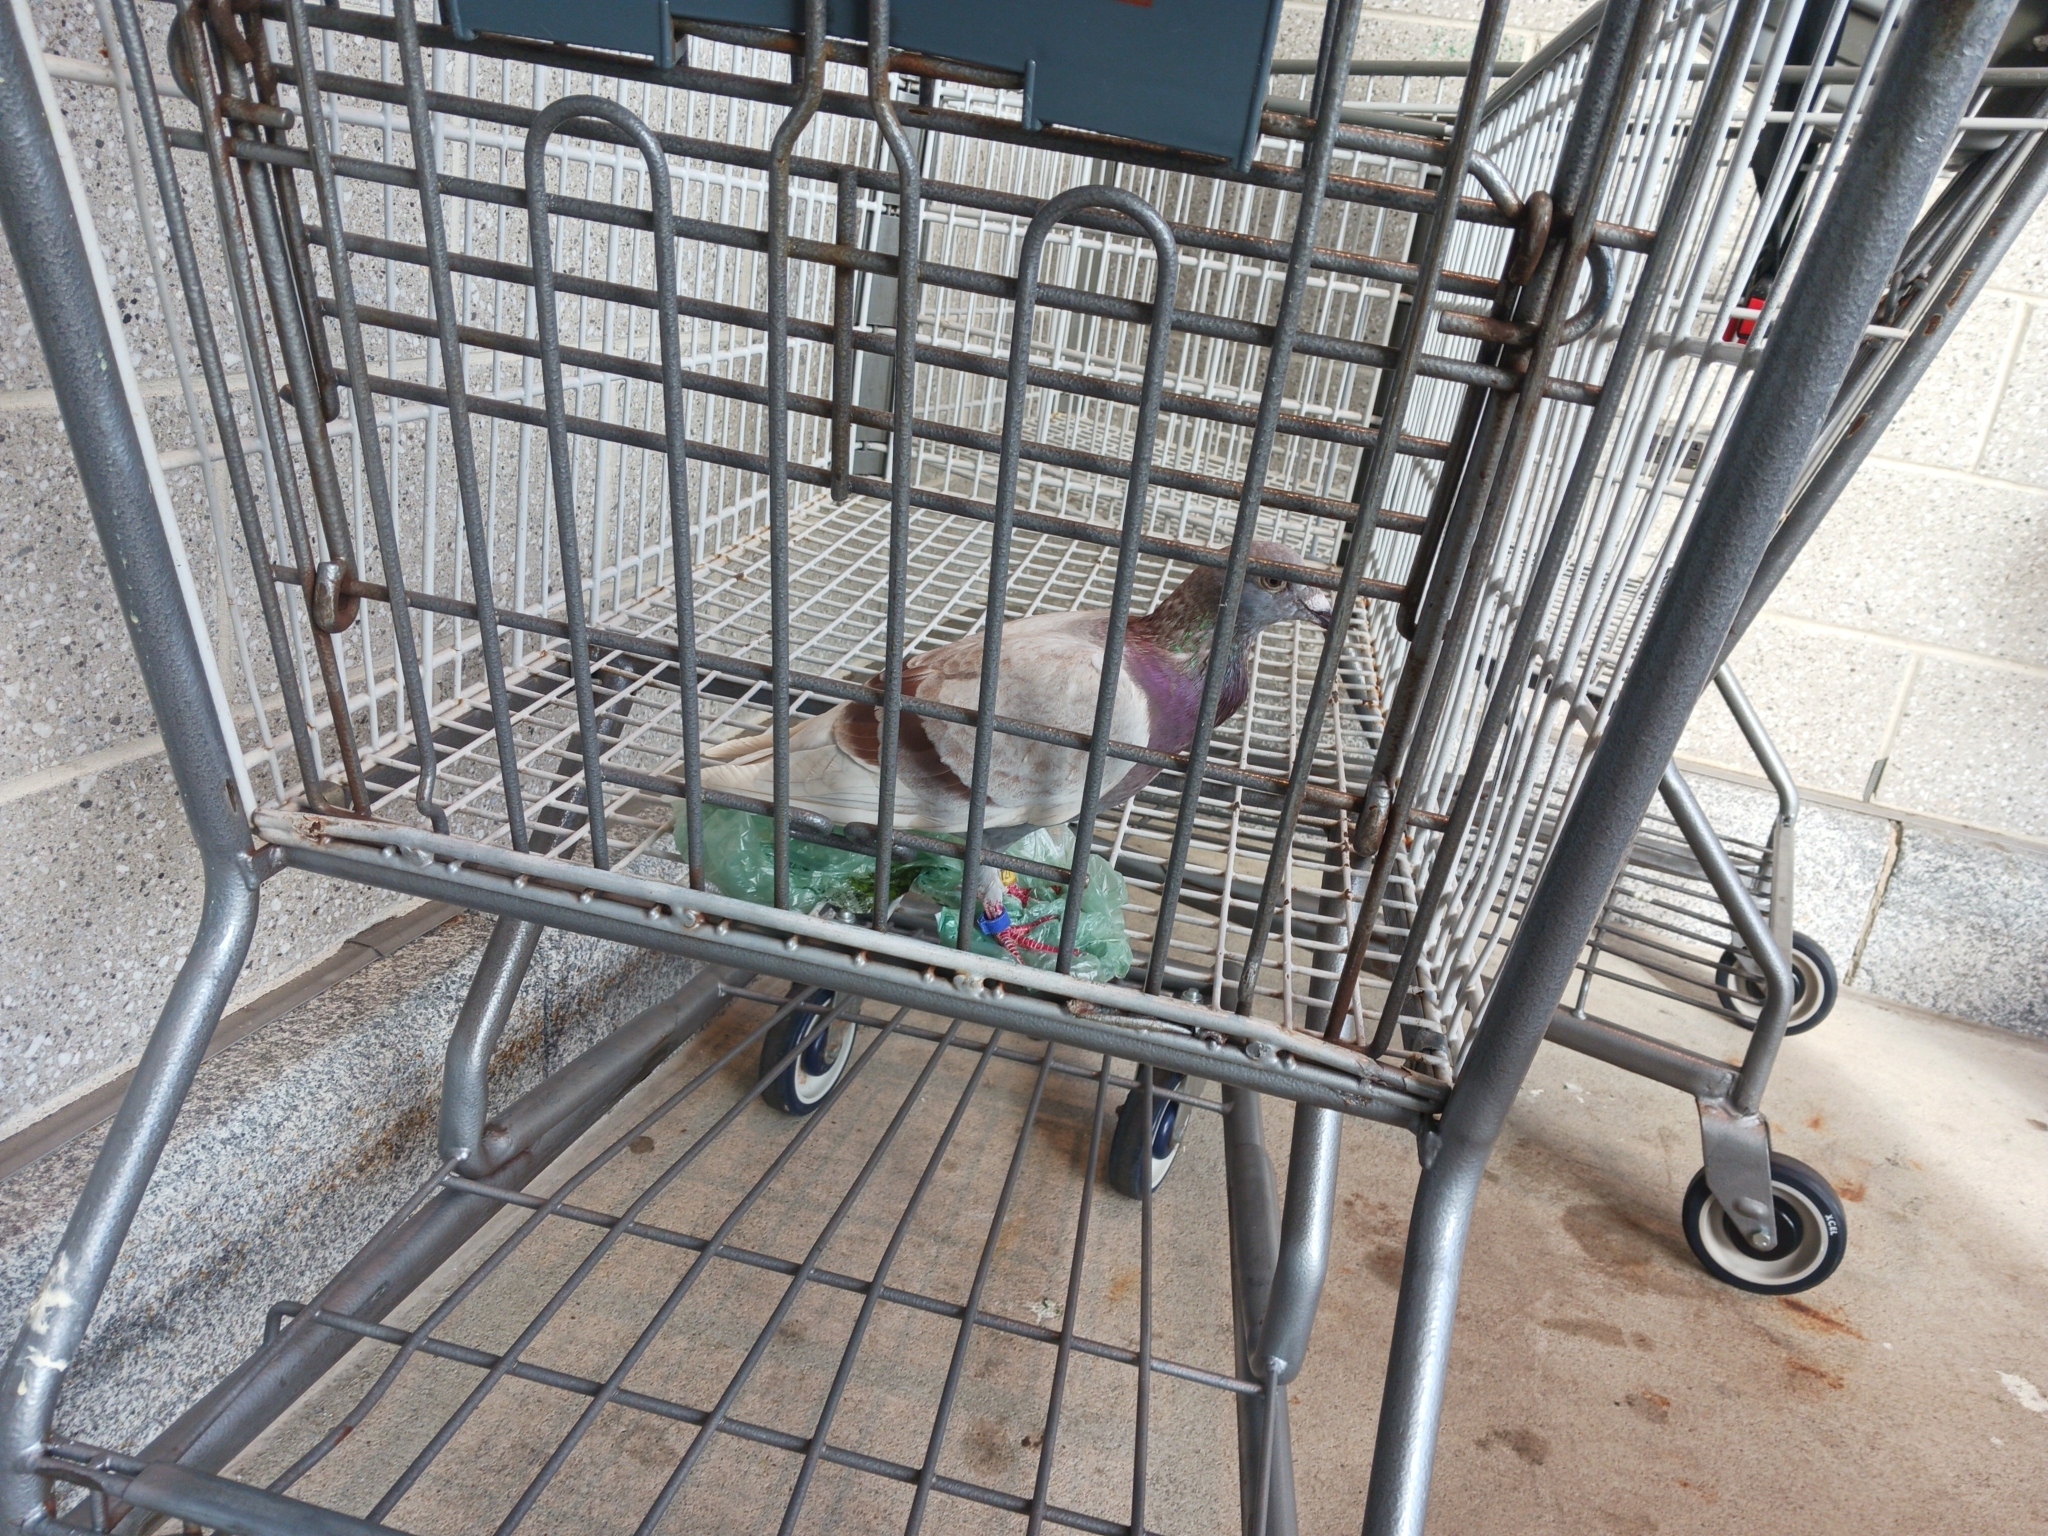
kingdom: Animalia
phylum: Chordata
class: Aves
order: Columbiformes
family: Columbidae
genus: Columba
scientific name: Columba livia
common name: Rock pigeon
